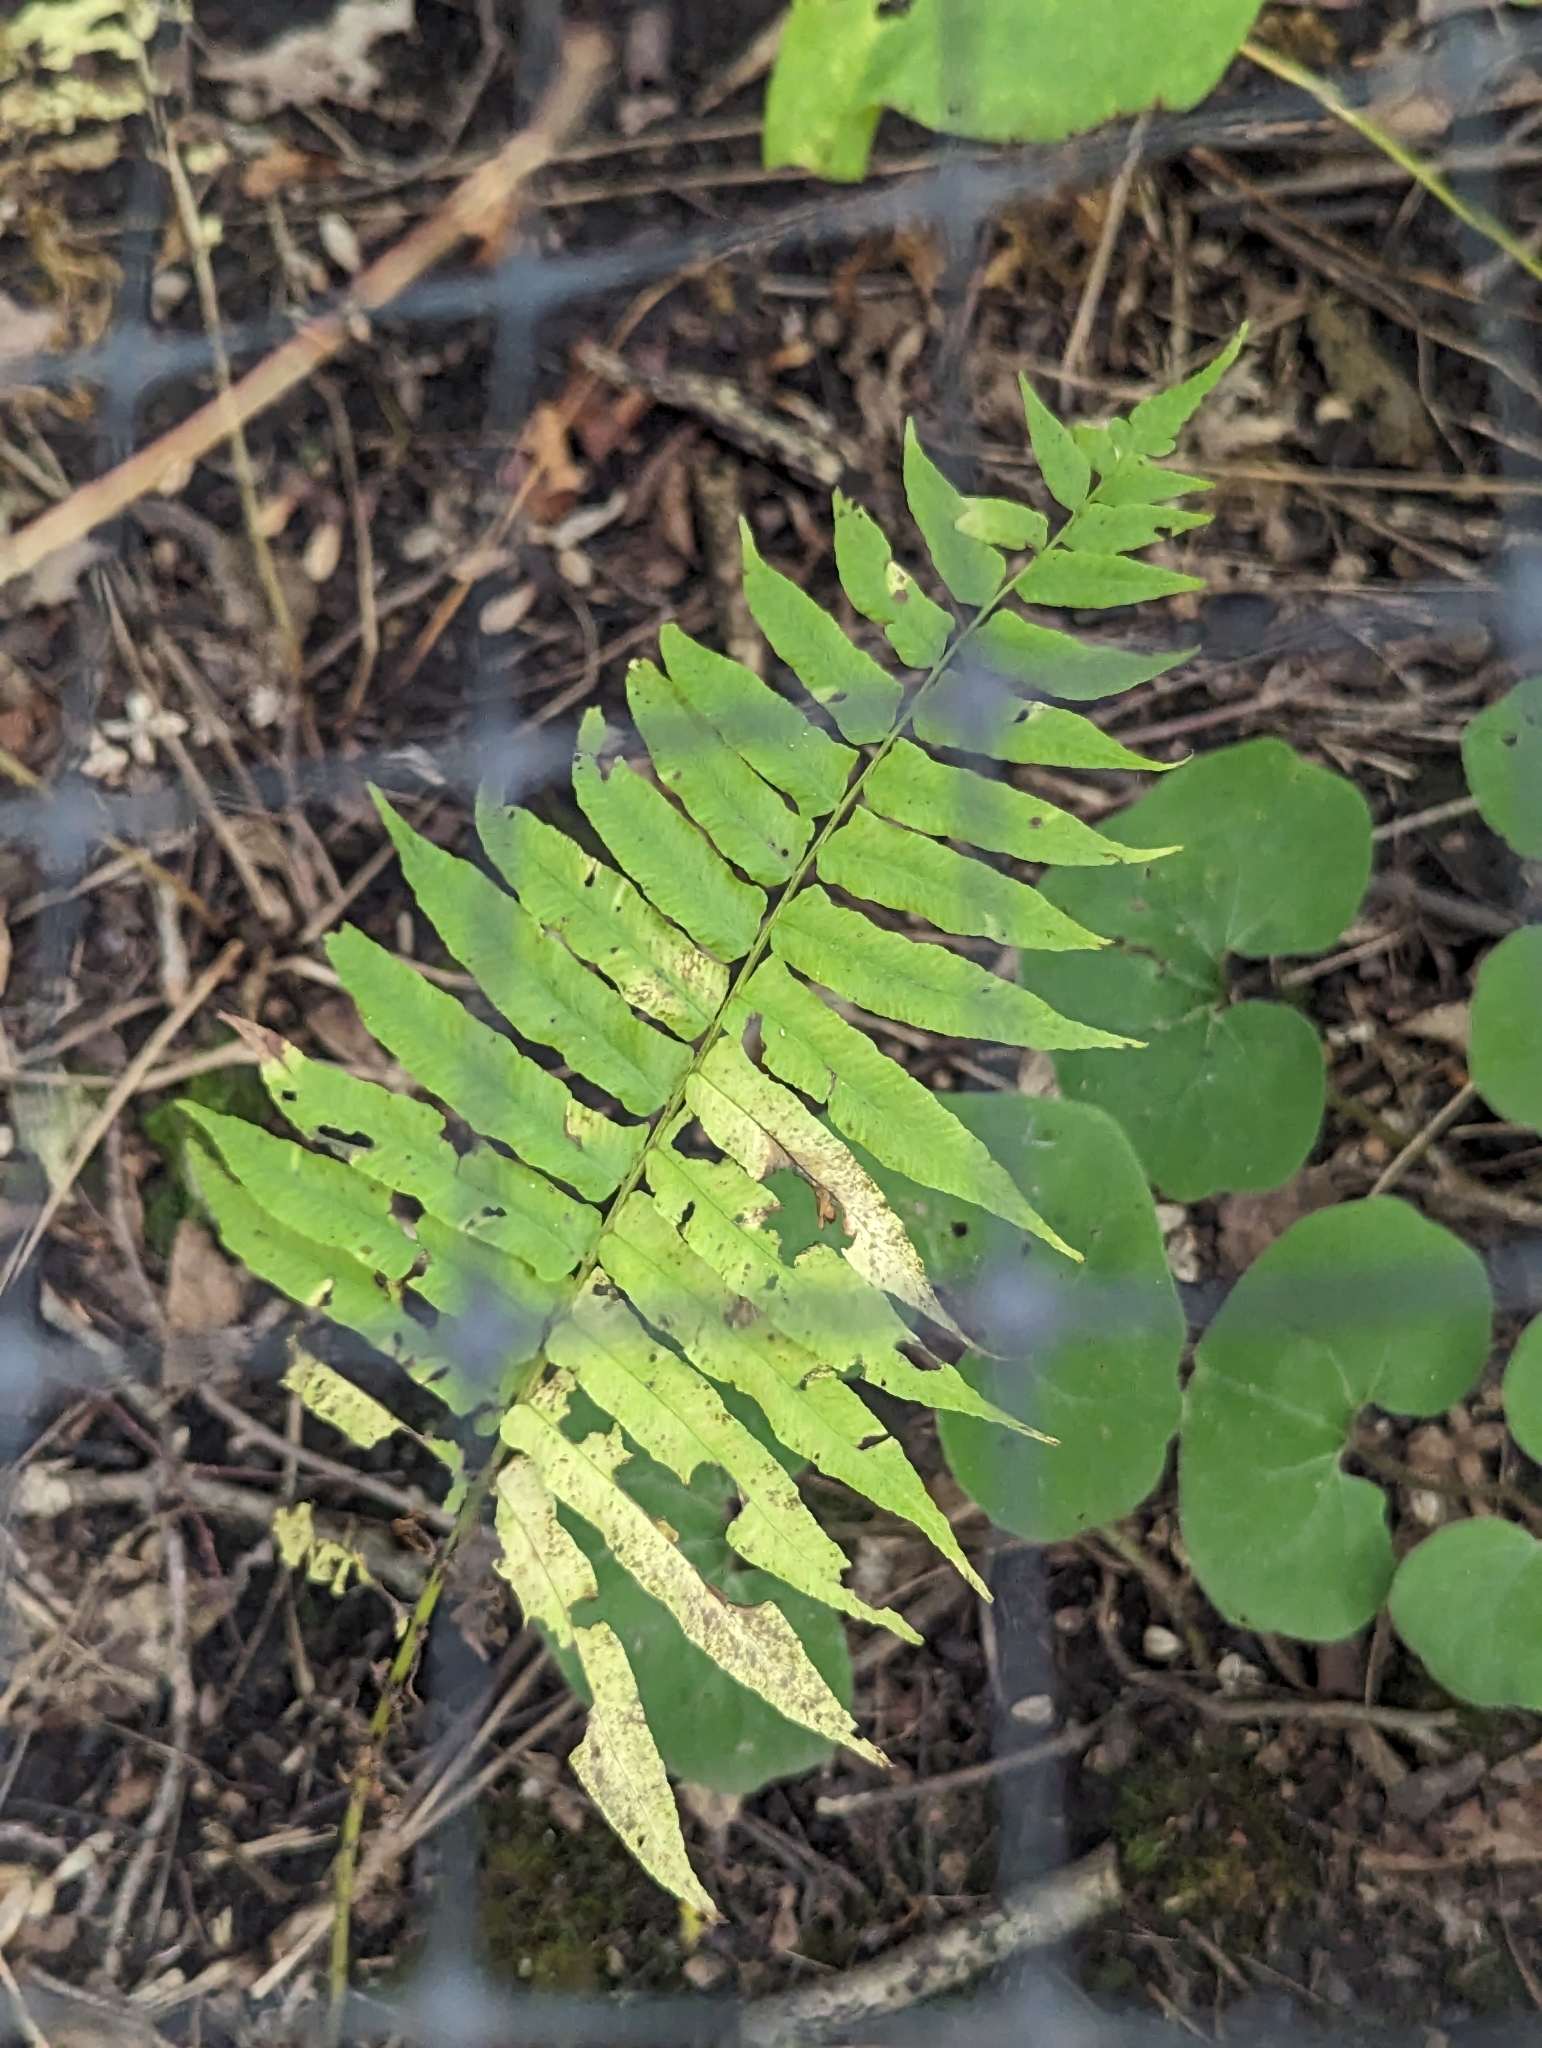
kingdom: Plantae
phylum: Tracheophyta
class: Polypodiopsida
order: Polypodiales
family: Diplaziopsidaceae
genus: Homalosorus
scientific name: Homalosorus pycnocarpos
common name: Glade fern
